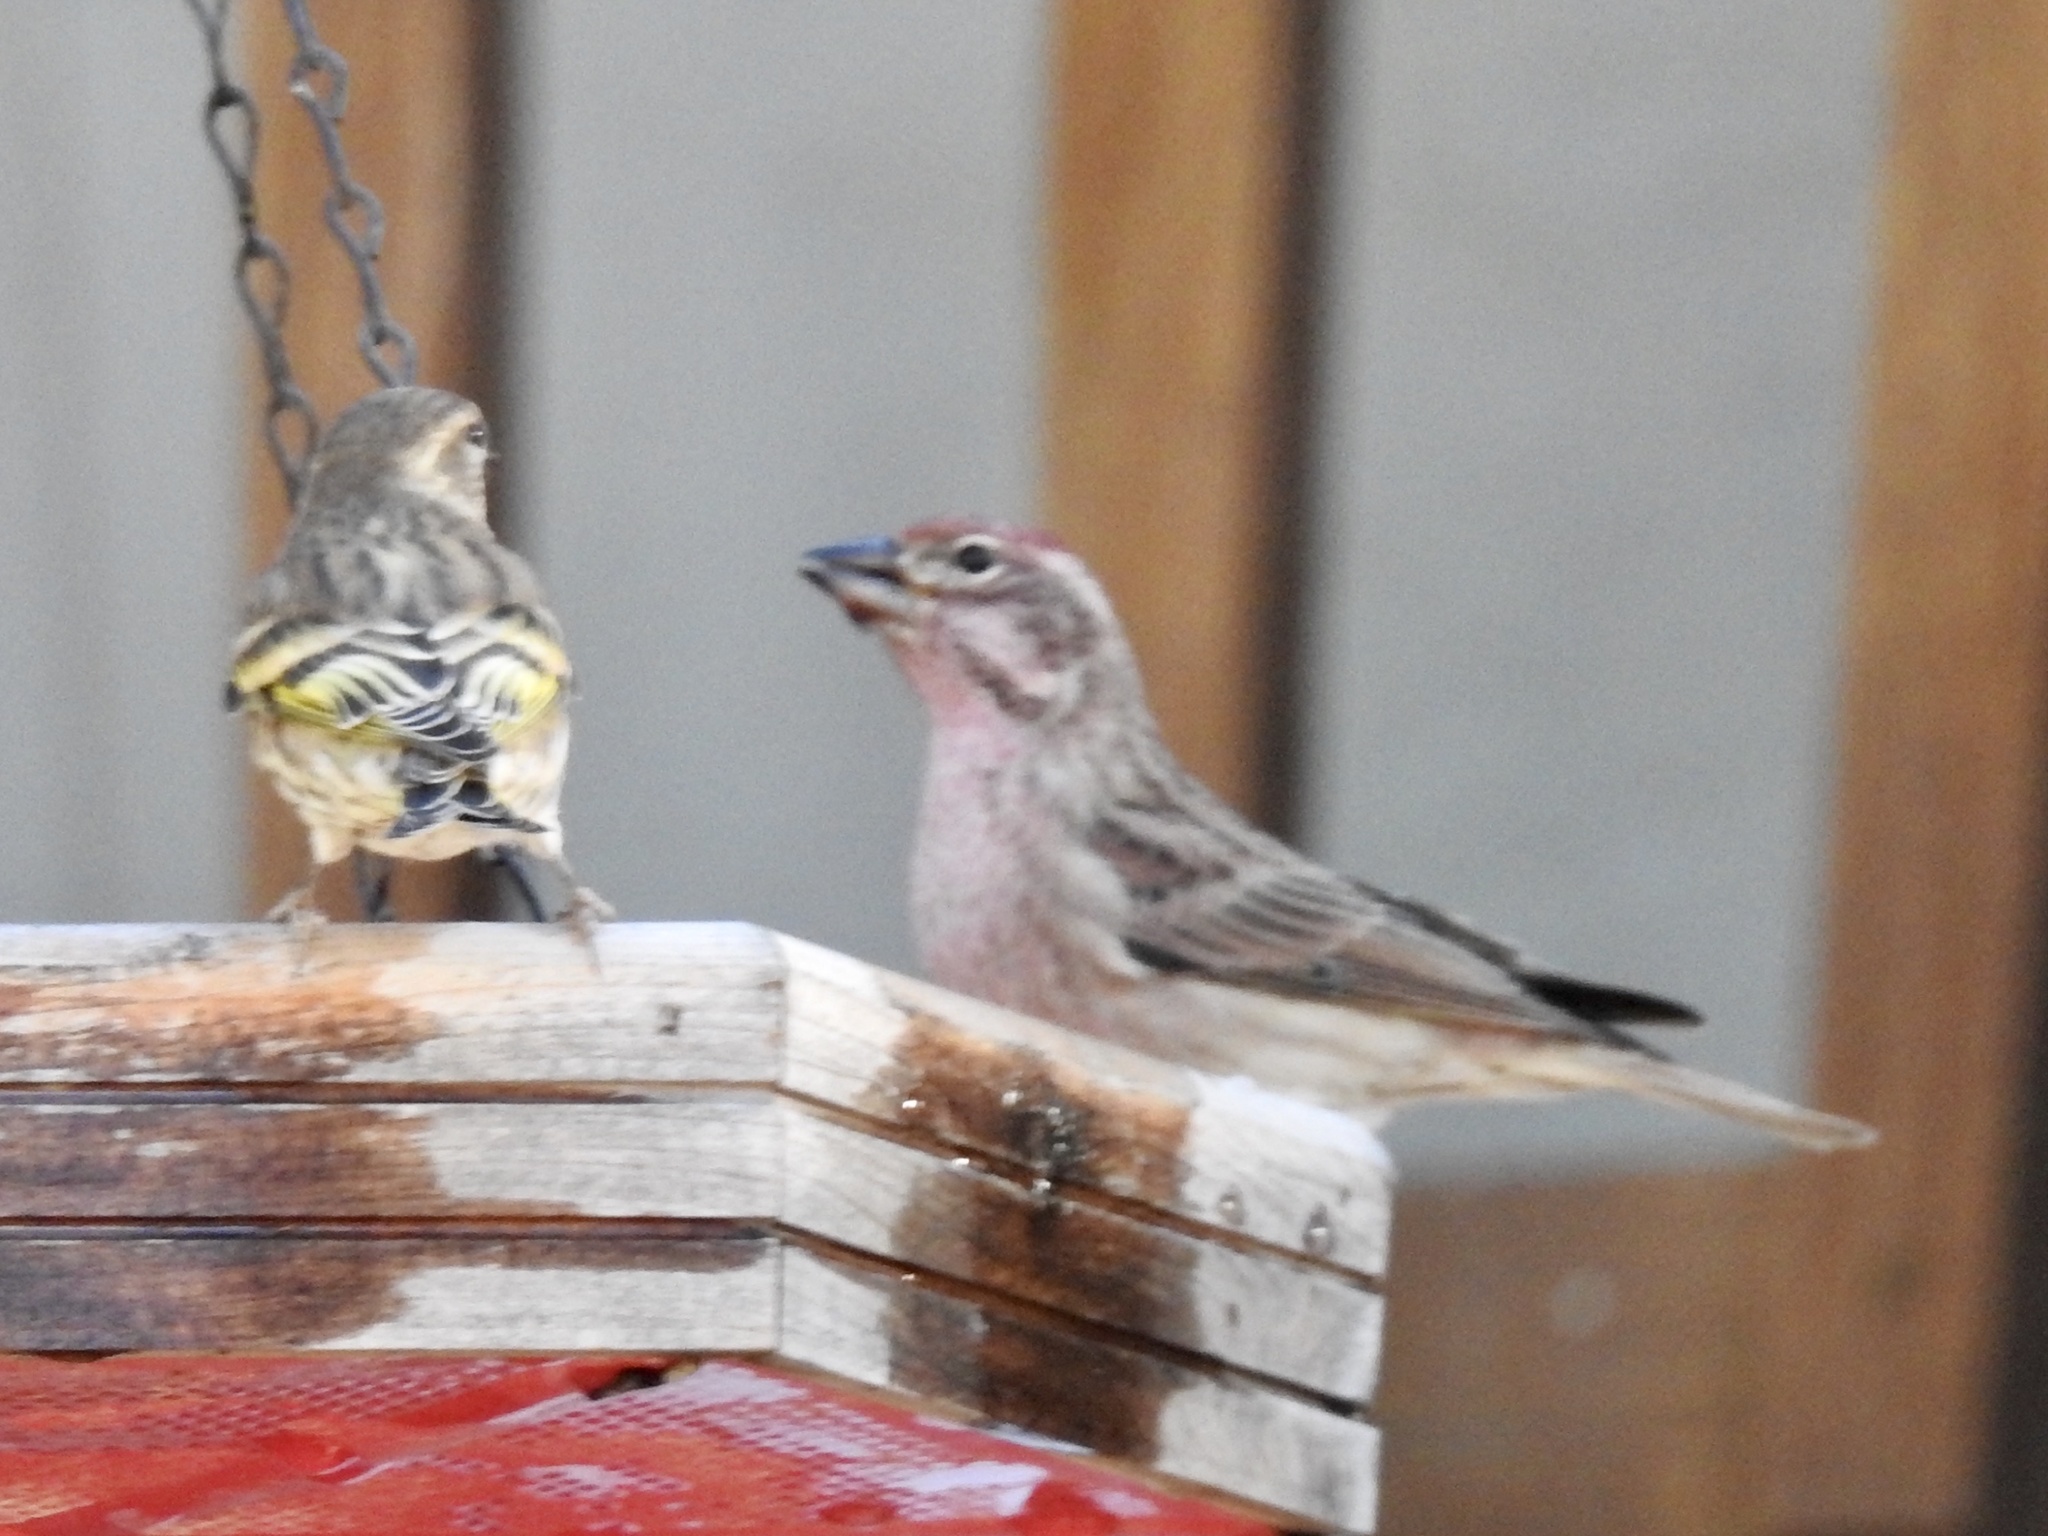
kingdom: Animalia
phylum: Chordata
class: Aves
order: Passeriformes
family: Fringillidae
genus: Haemorhous
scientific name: Haemorhous cassinii
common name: Cassin's finch
